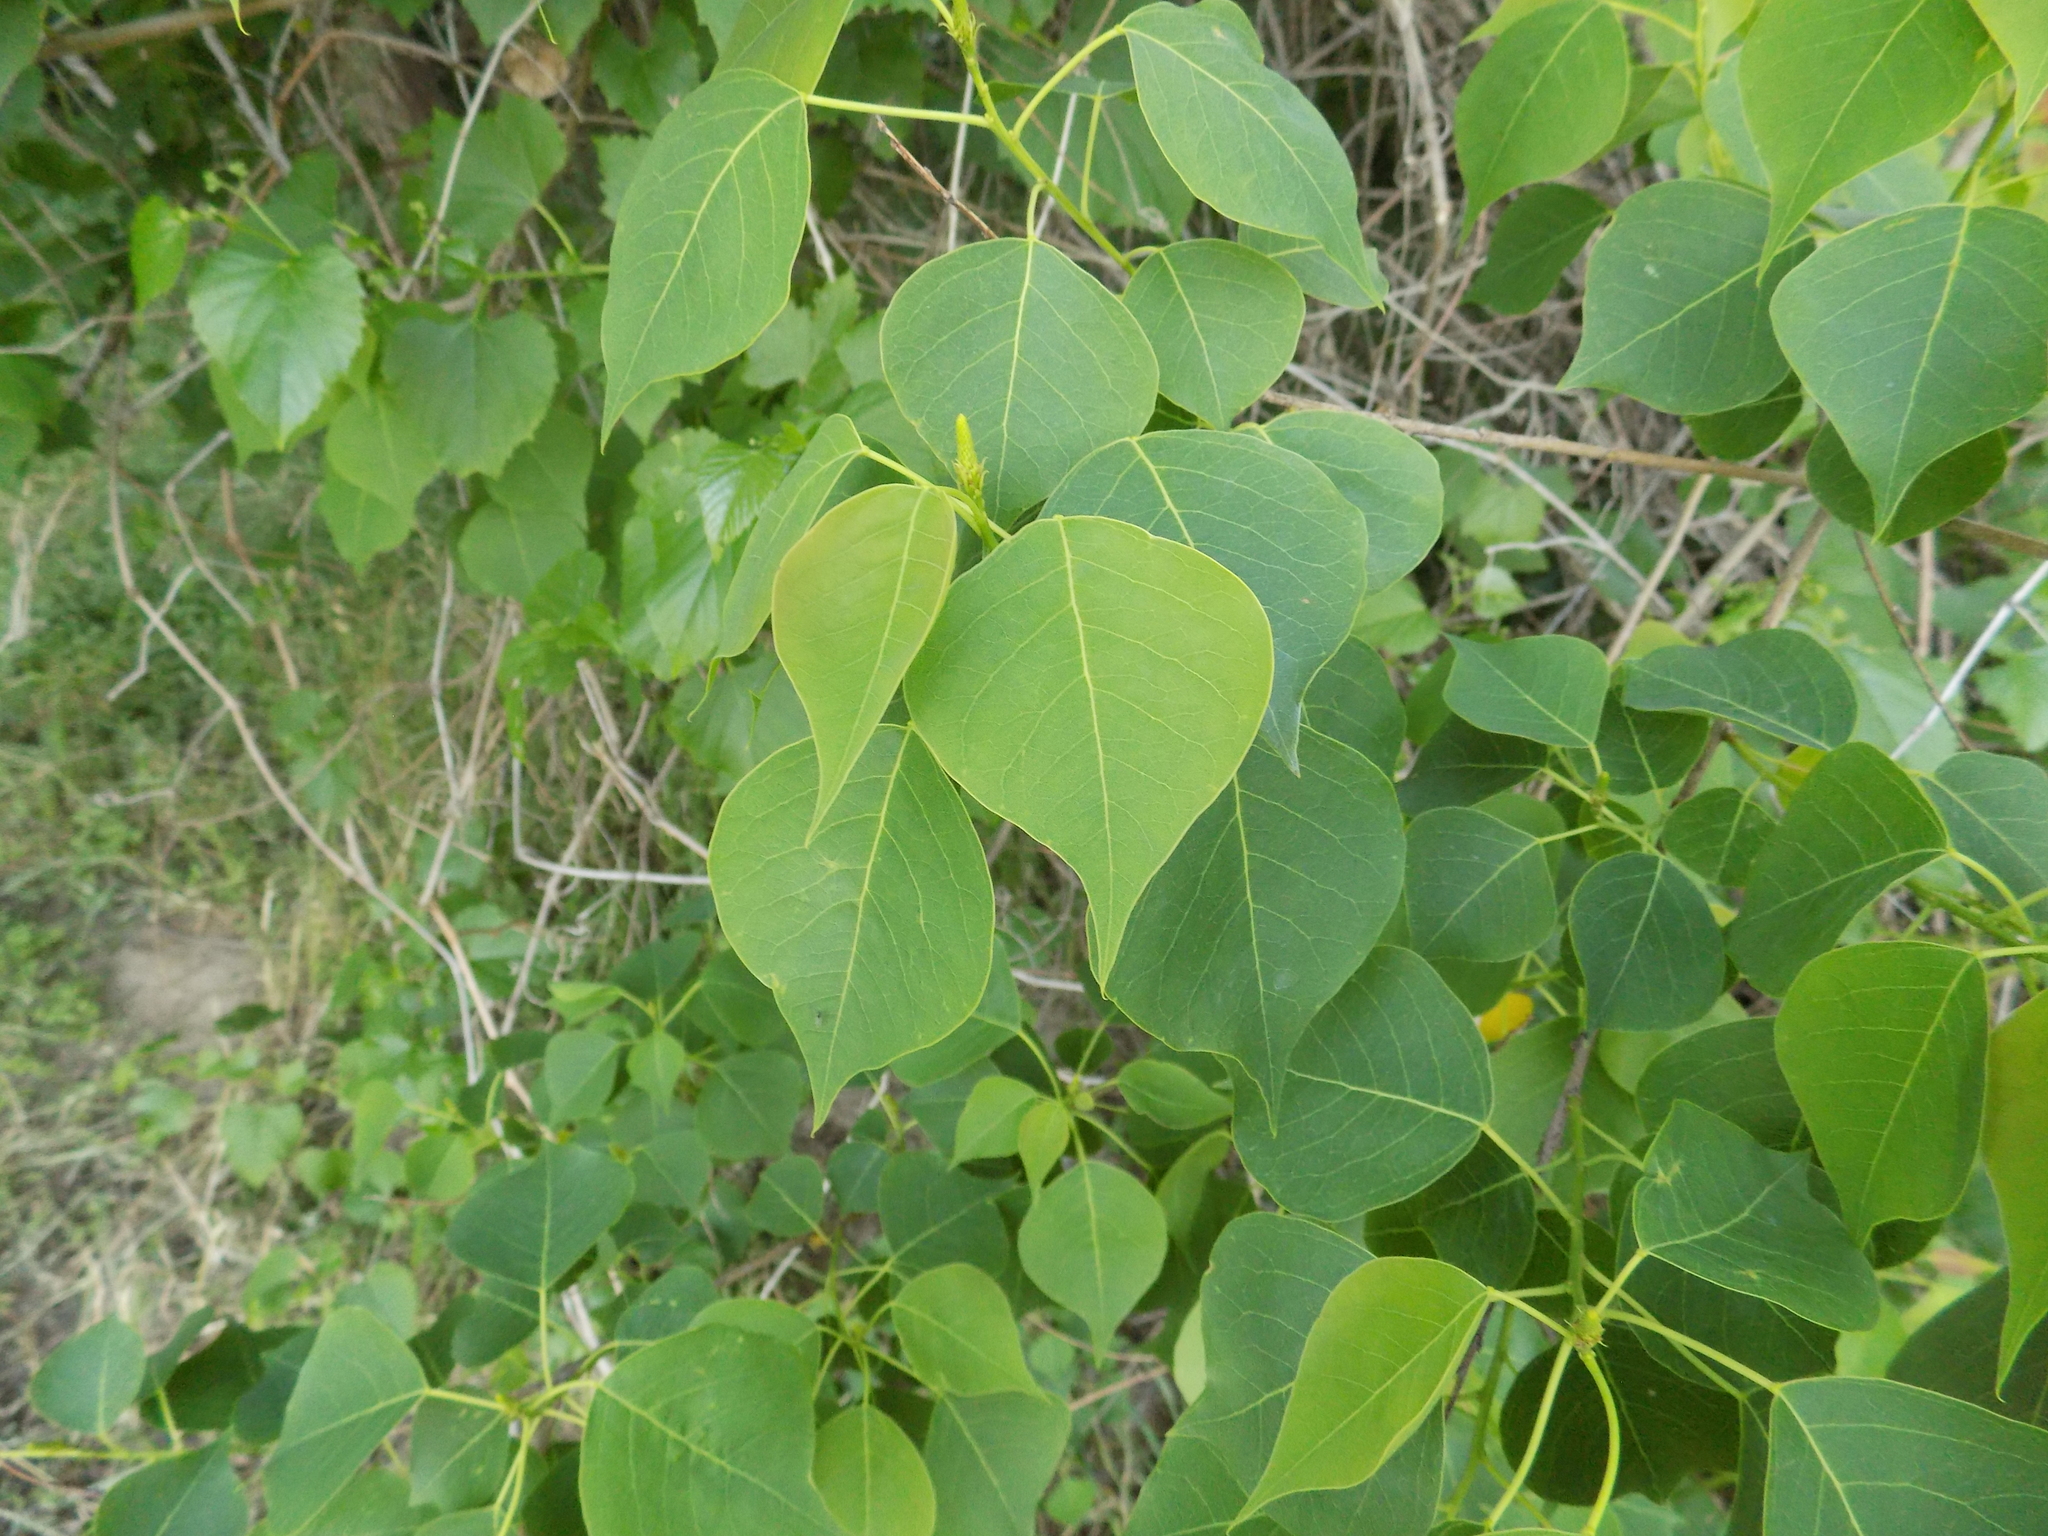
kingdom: Plantae
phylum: Tracheophyta
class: Magnoliopsida
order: Malpighiales
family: Euphorbiaceae
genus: Triadica
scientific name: Triadica sebifera
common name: Chinese tallow
